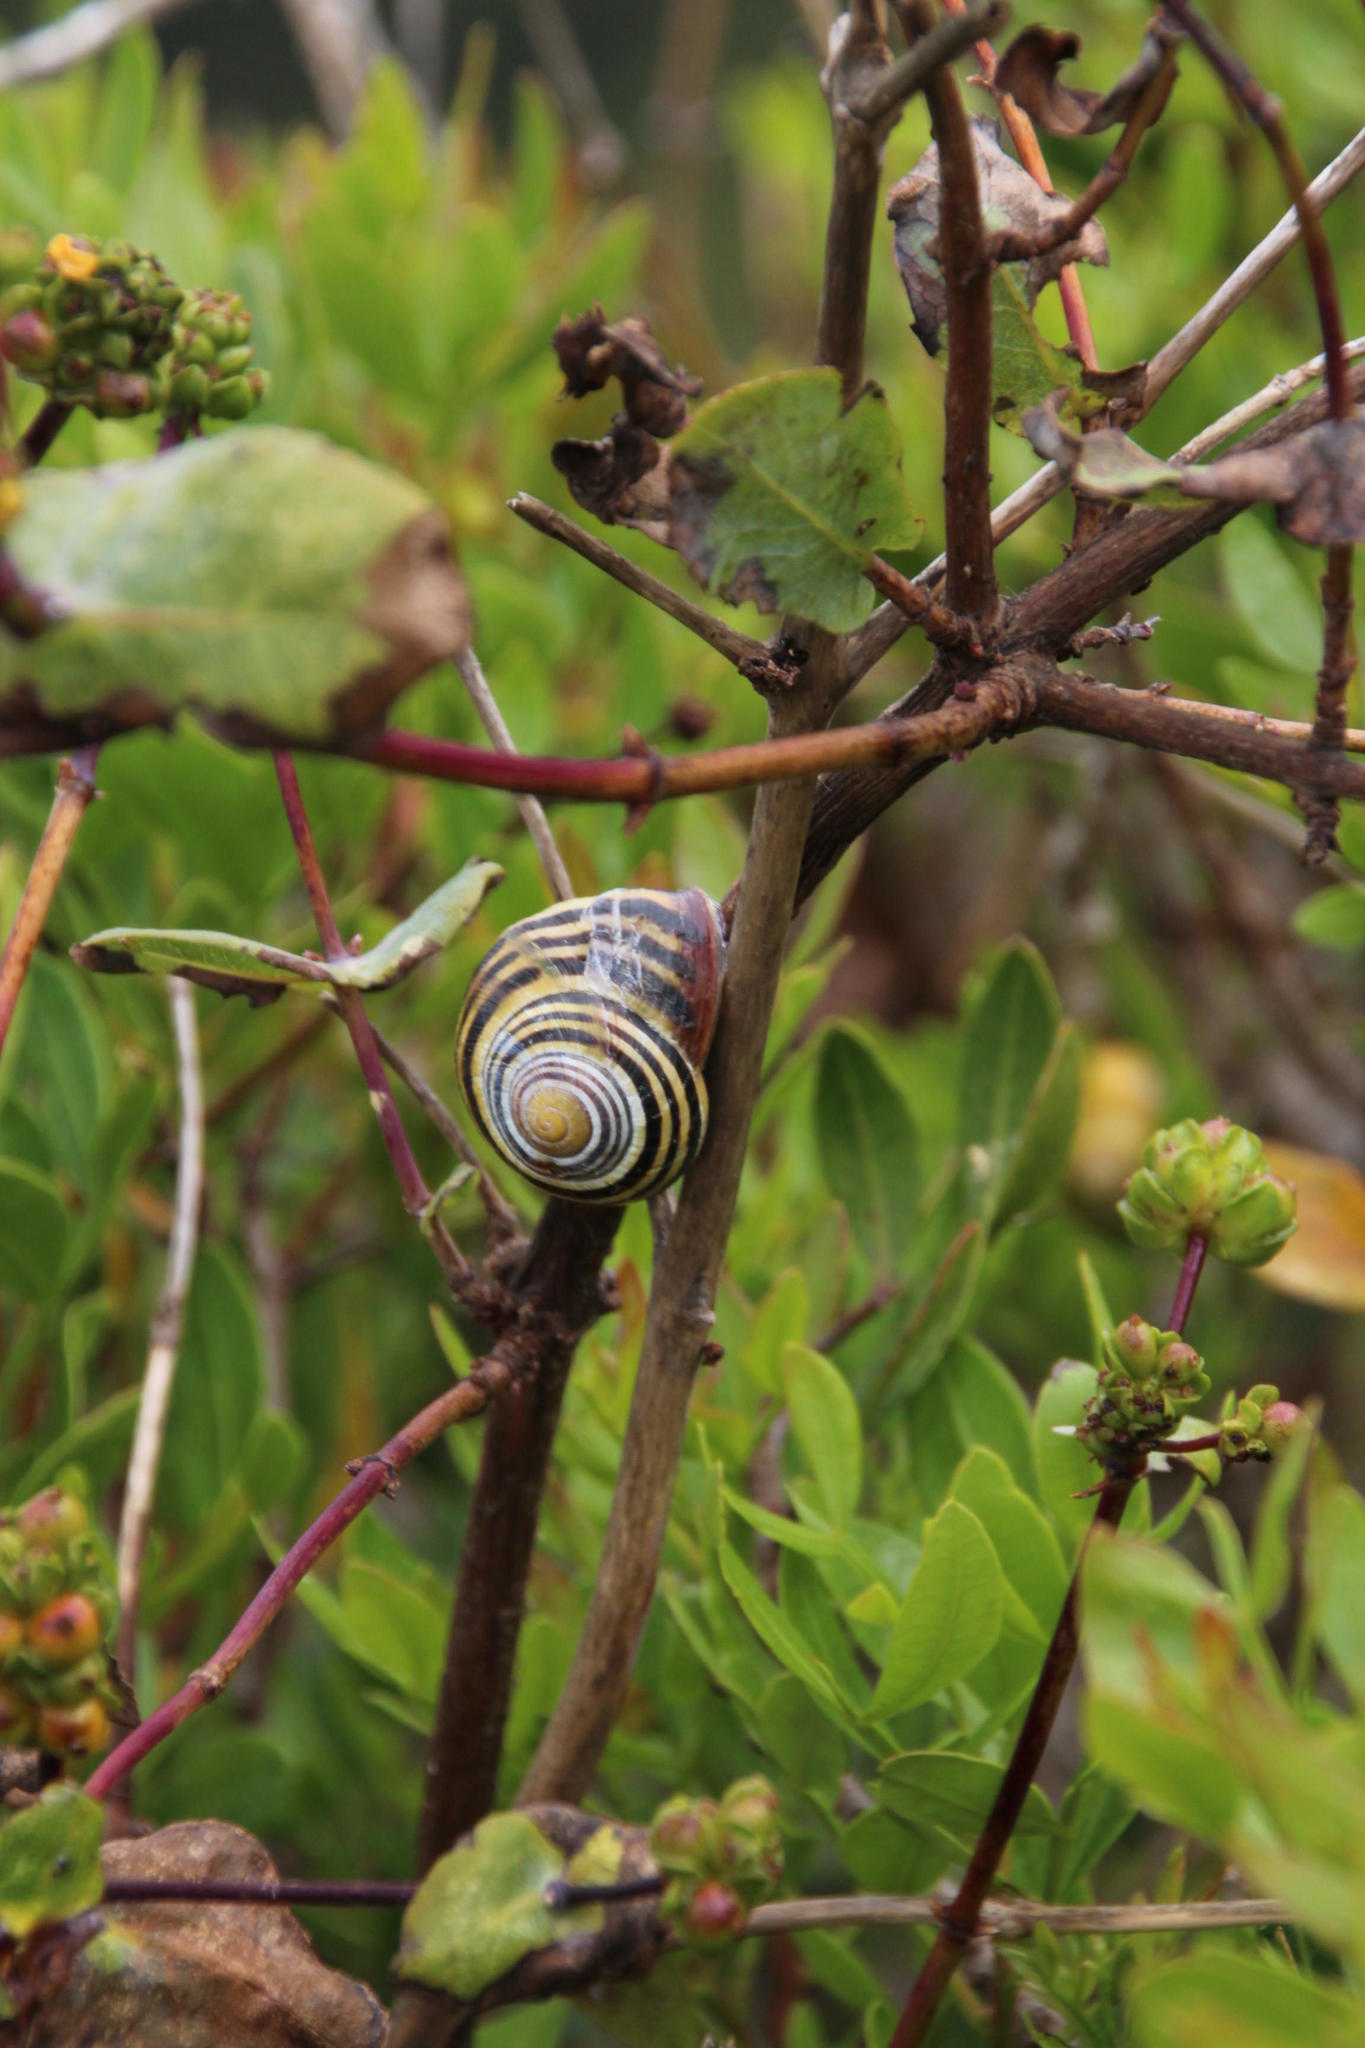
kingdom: Animalia
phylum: Mollusca
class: Gastropoda
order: Stylommatophora
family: Helicidae
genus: Cepaea
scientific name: Cepaea nemoralis
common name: Grovesnail
